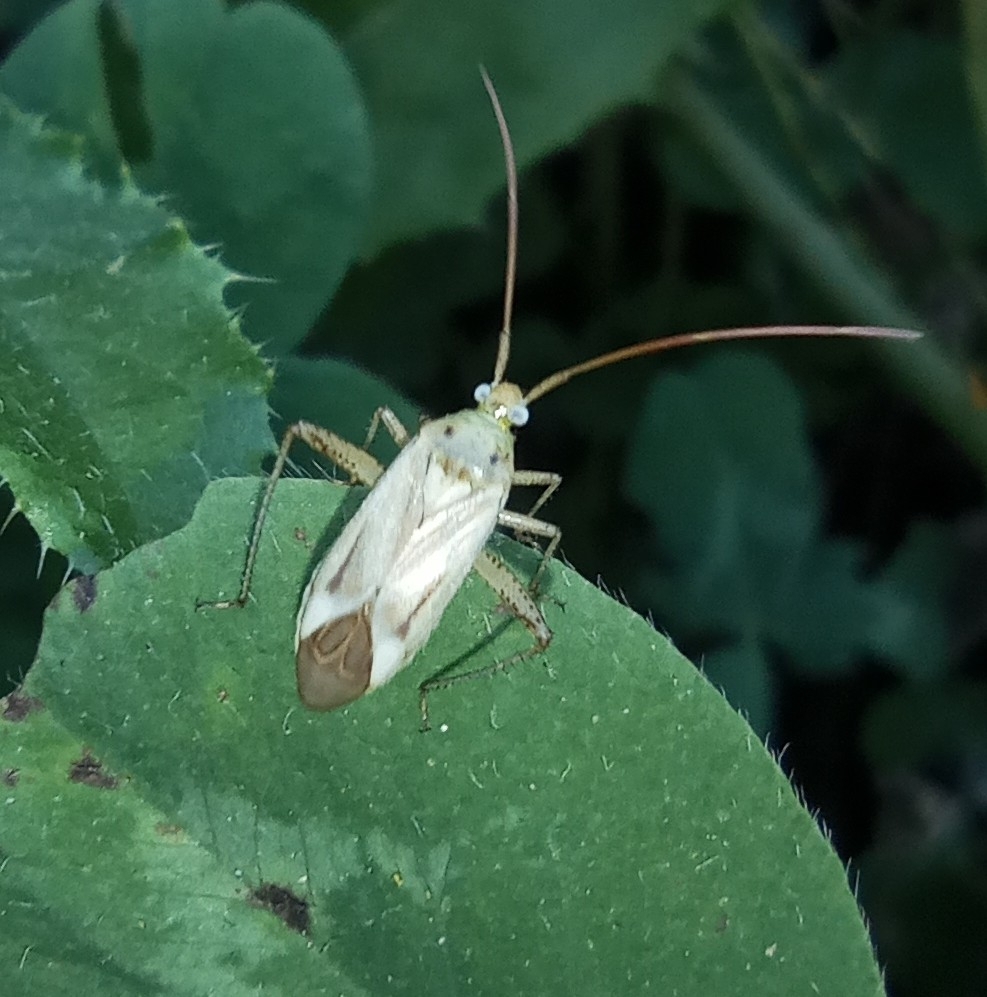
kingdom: Animalia
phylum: Arthropoda
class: Insecta
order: Hemiptera
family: Miridae
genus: Adelphocoris
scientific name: Adelphocoris lineolatus
